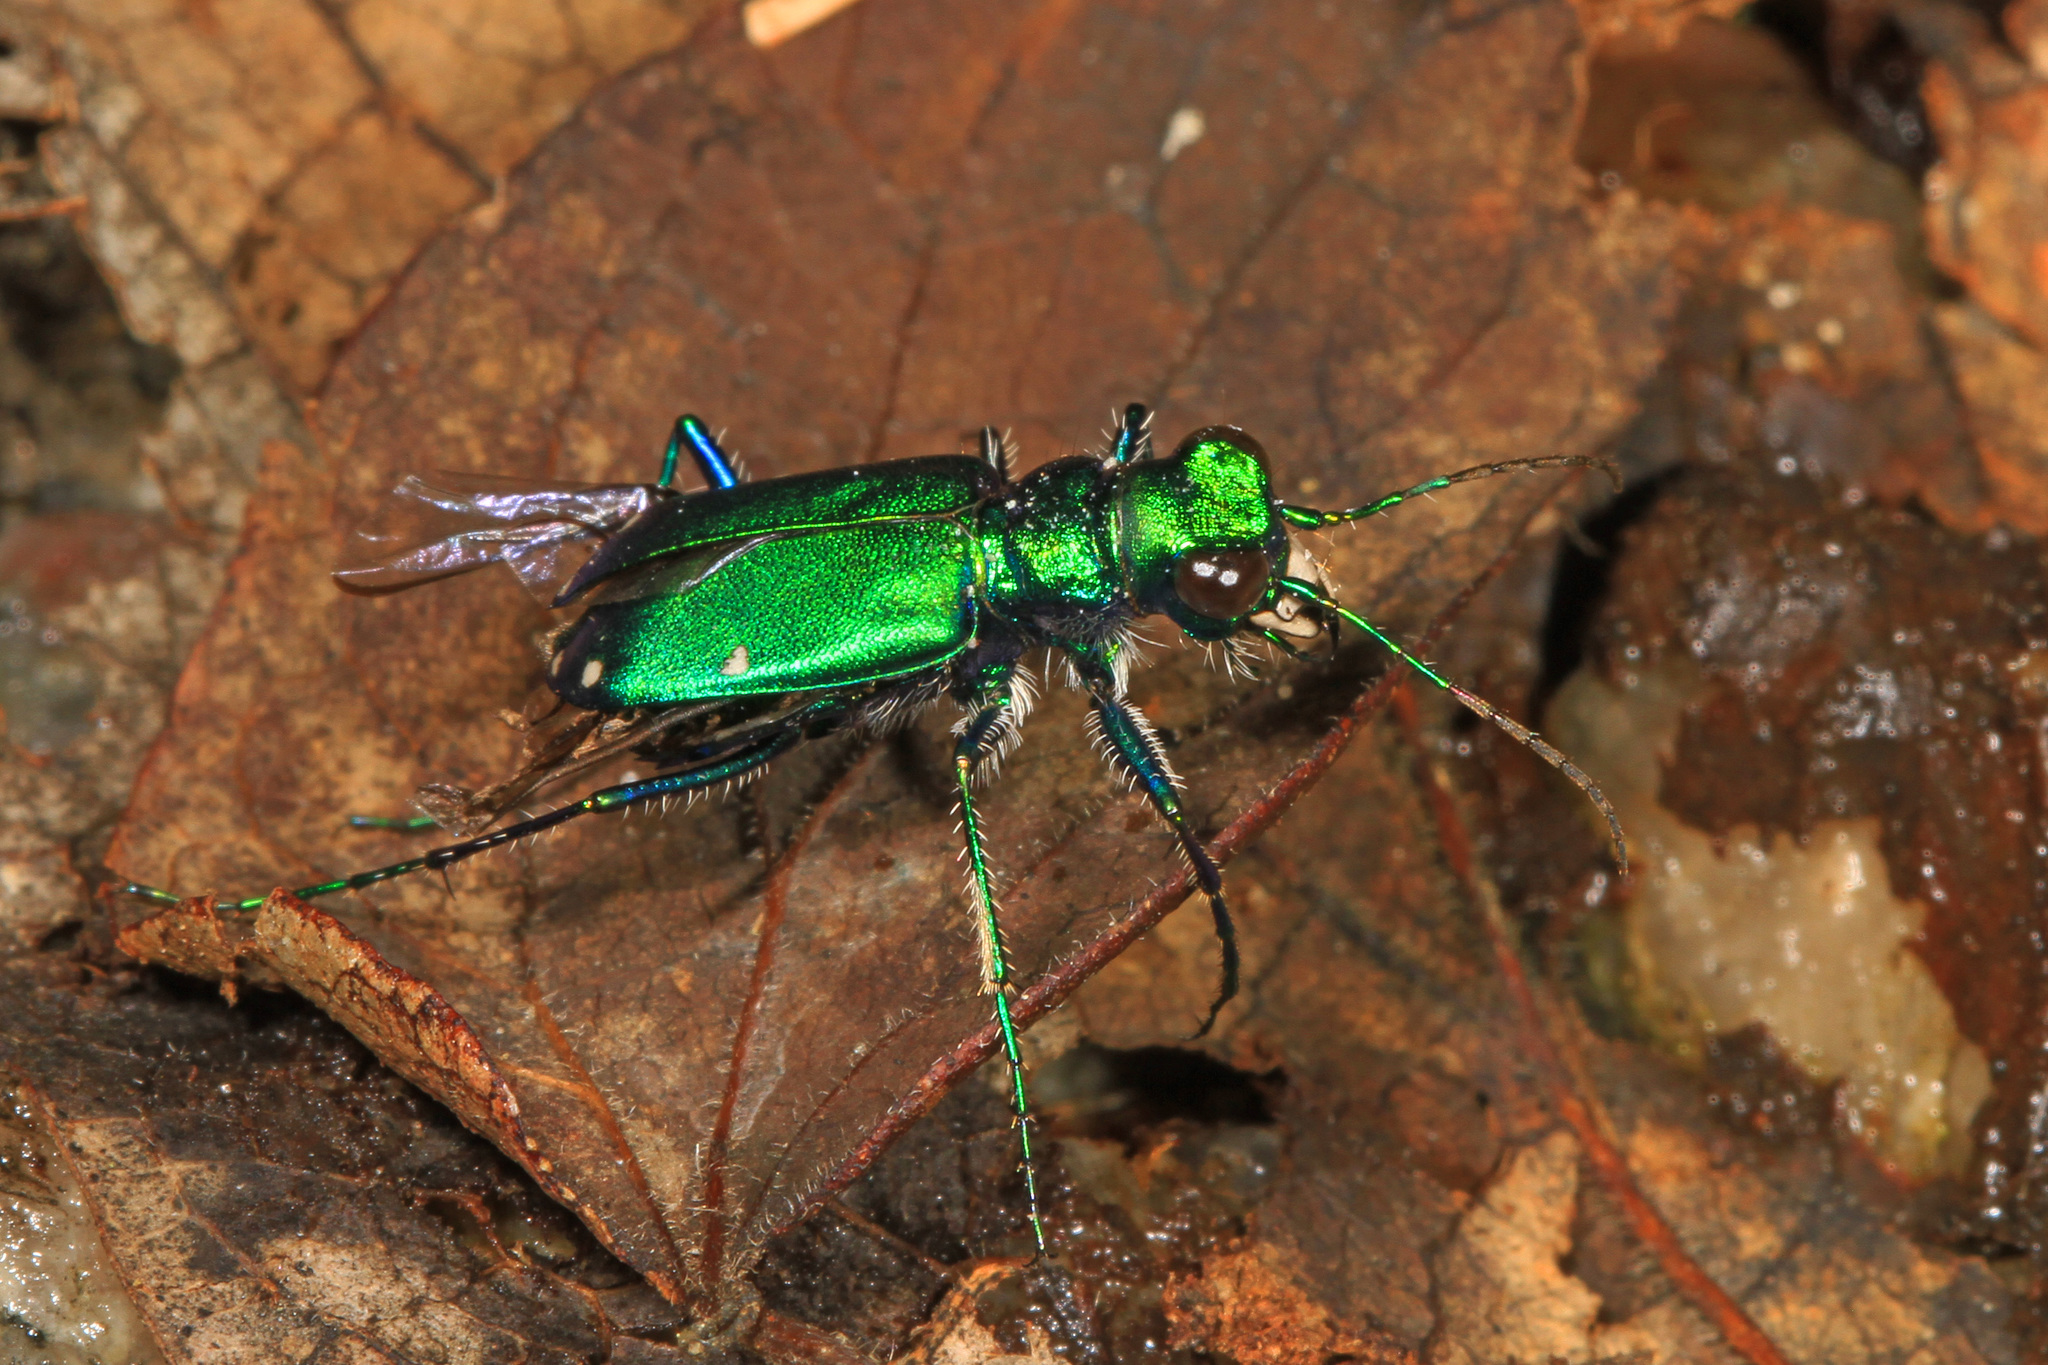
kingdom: Animalia
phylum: Arthropoda
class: Insecta
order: Coleoptera
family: Carabidae
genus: Cicindela
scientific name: Cicindela sexguttata
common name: Six-spotted tiger beetle
